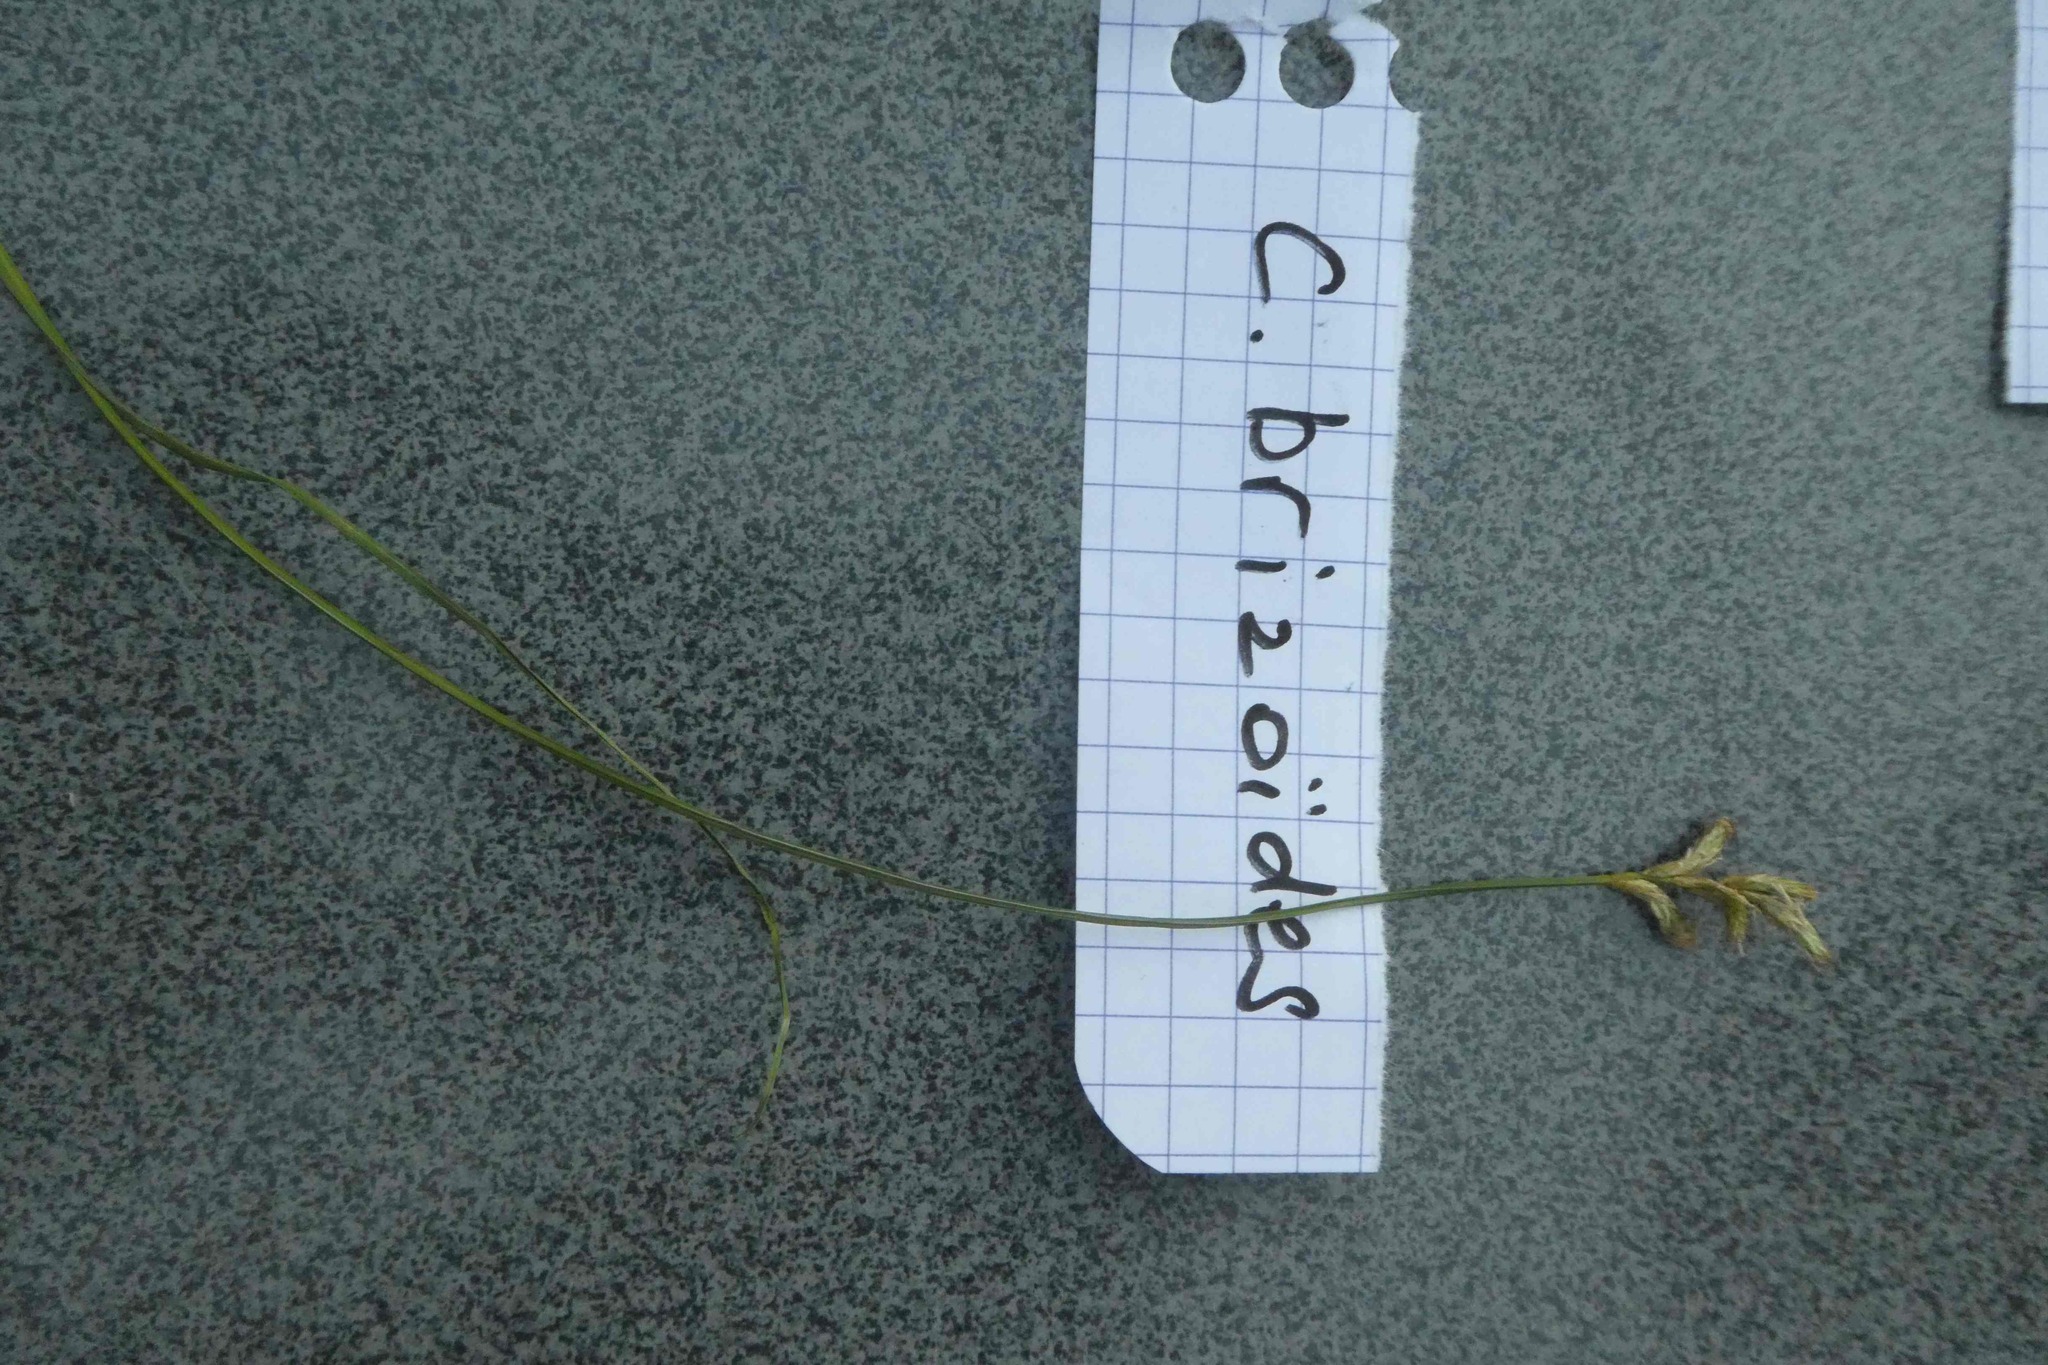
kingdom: Plantae
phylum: Tracheophyta
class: Liliopsida
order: Poales
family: Cyperaceae
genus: Carex
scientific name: Carex brizoides
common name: Quaking-grass sedge
